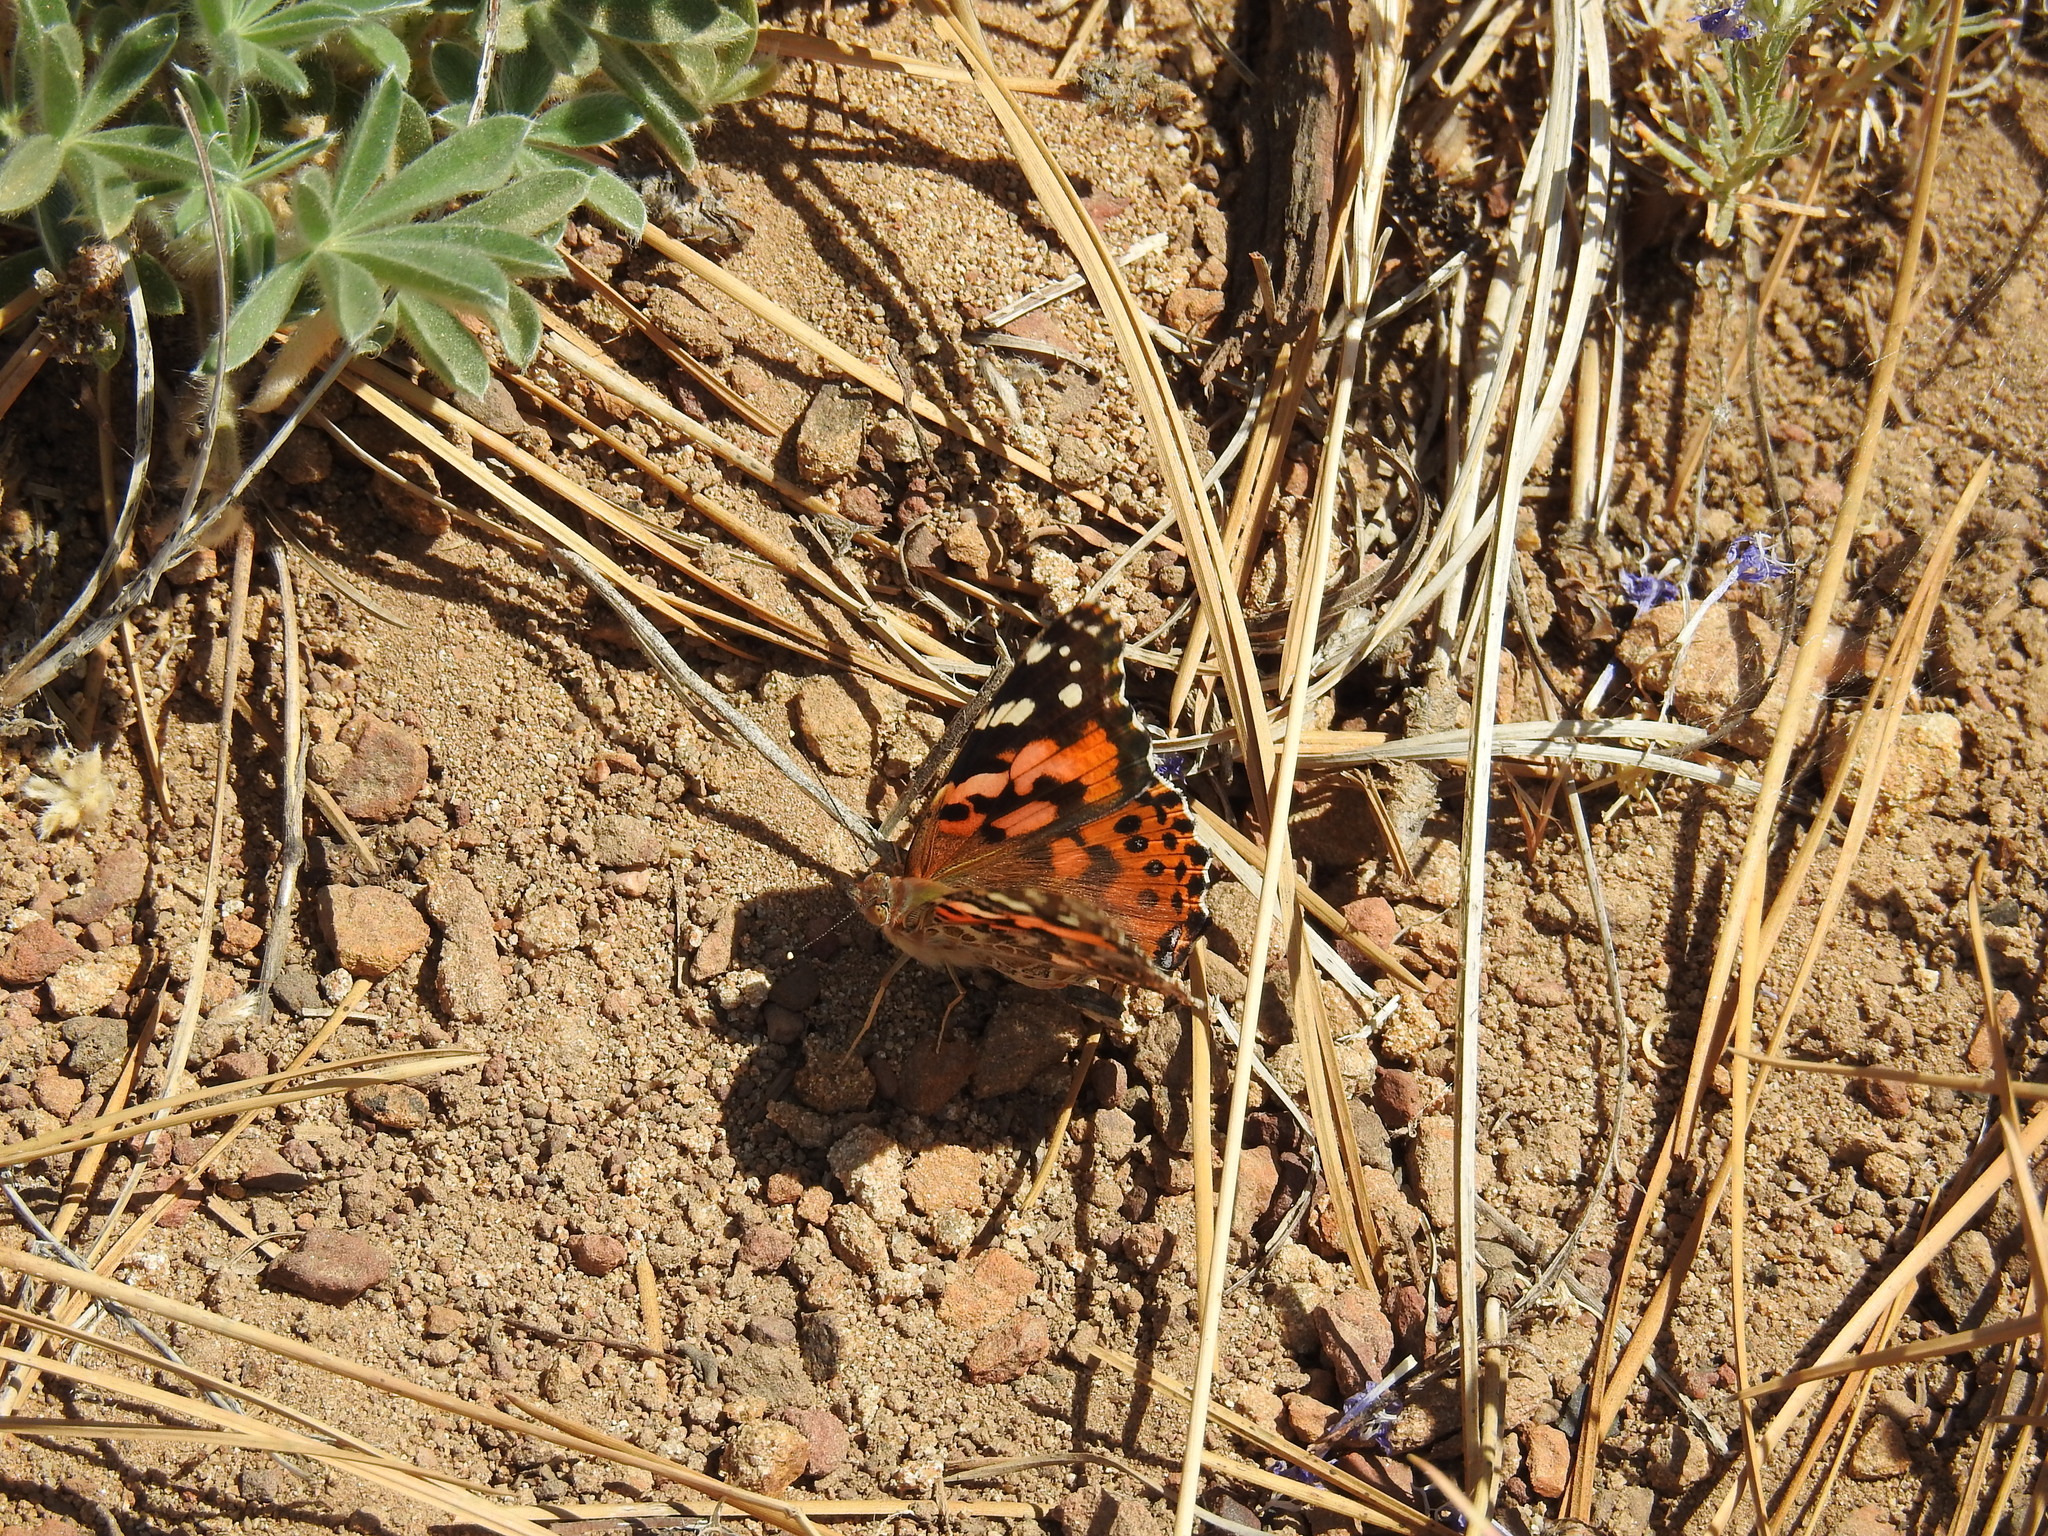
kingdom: Animalia
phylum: Arthropoda
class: Insecta
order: Lepidoptera
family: Nymphalidae
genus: Vanessa
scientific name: Vanessa cardui
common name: Painted lady
